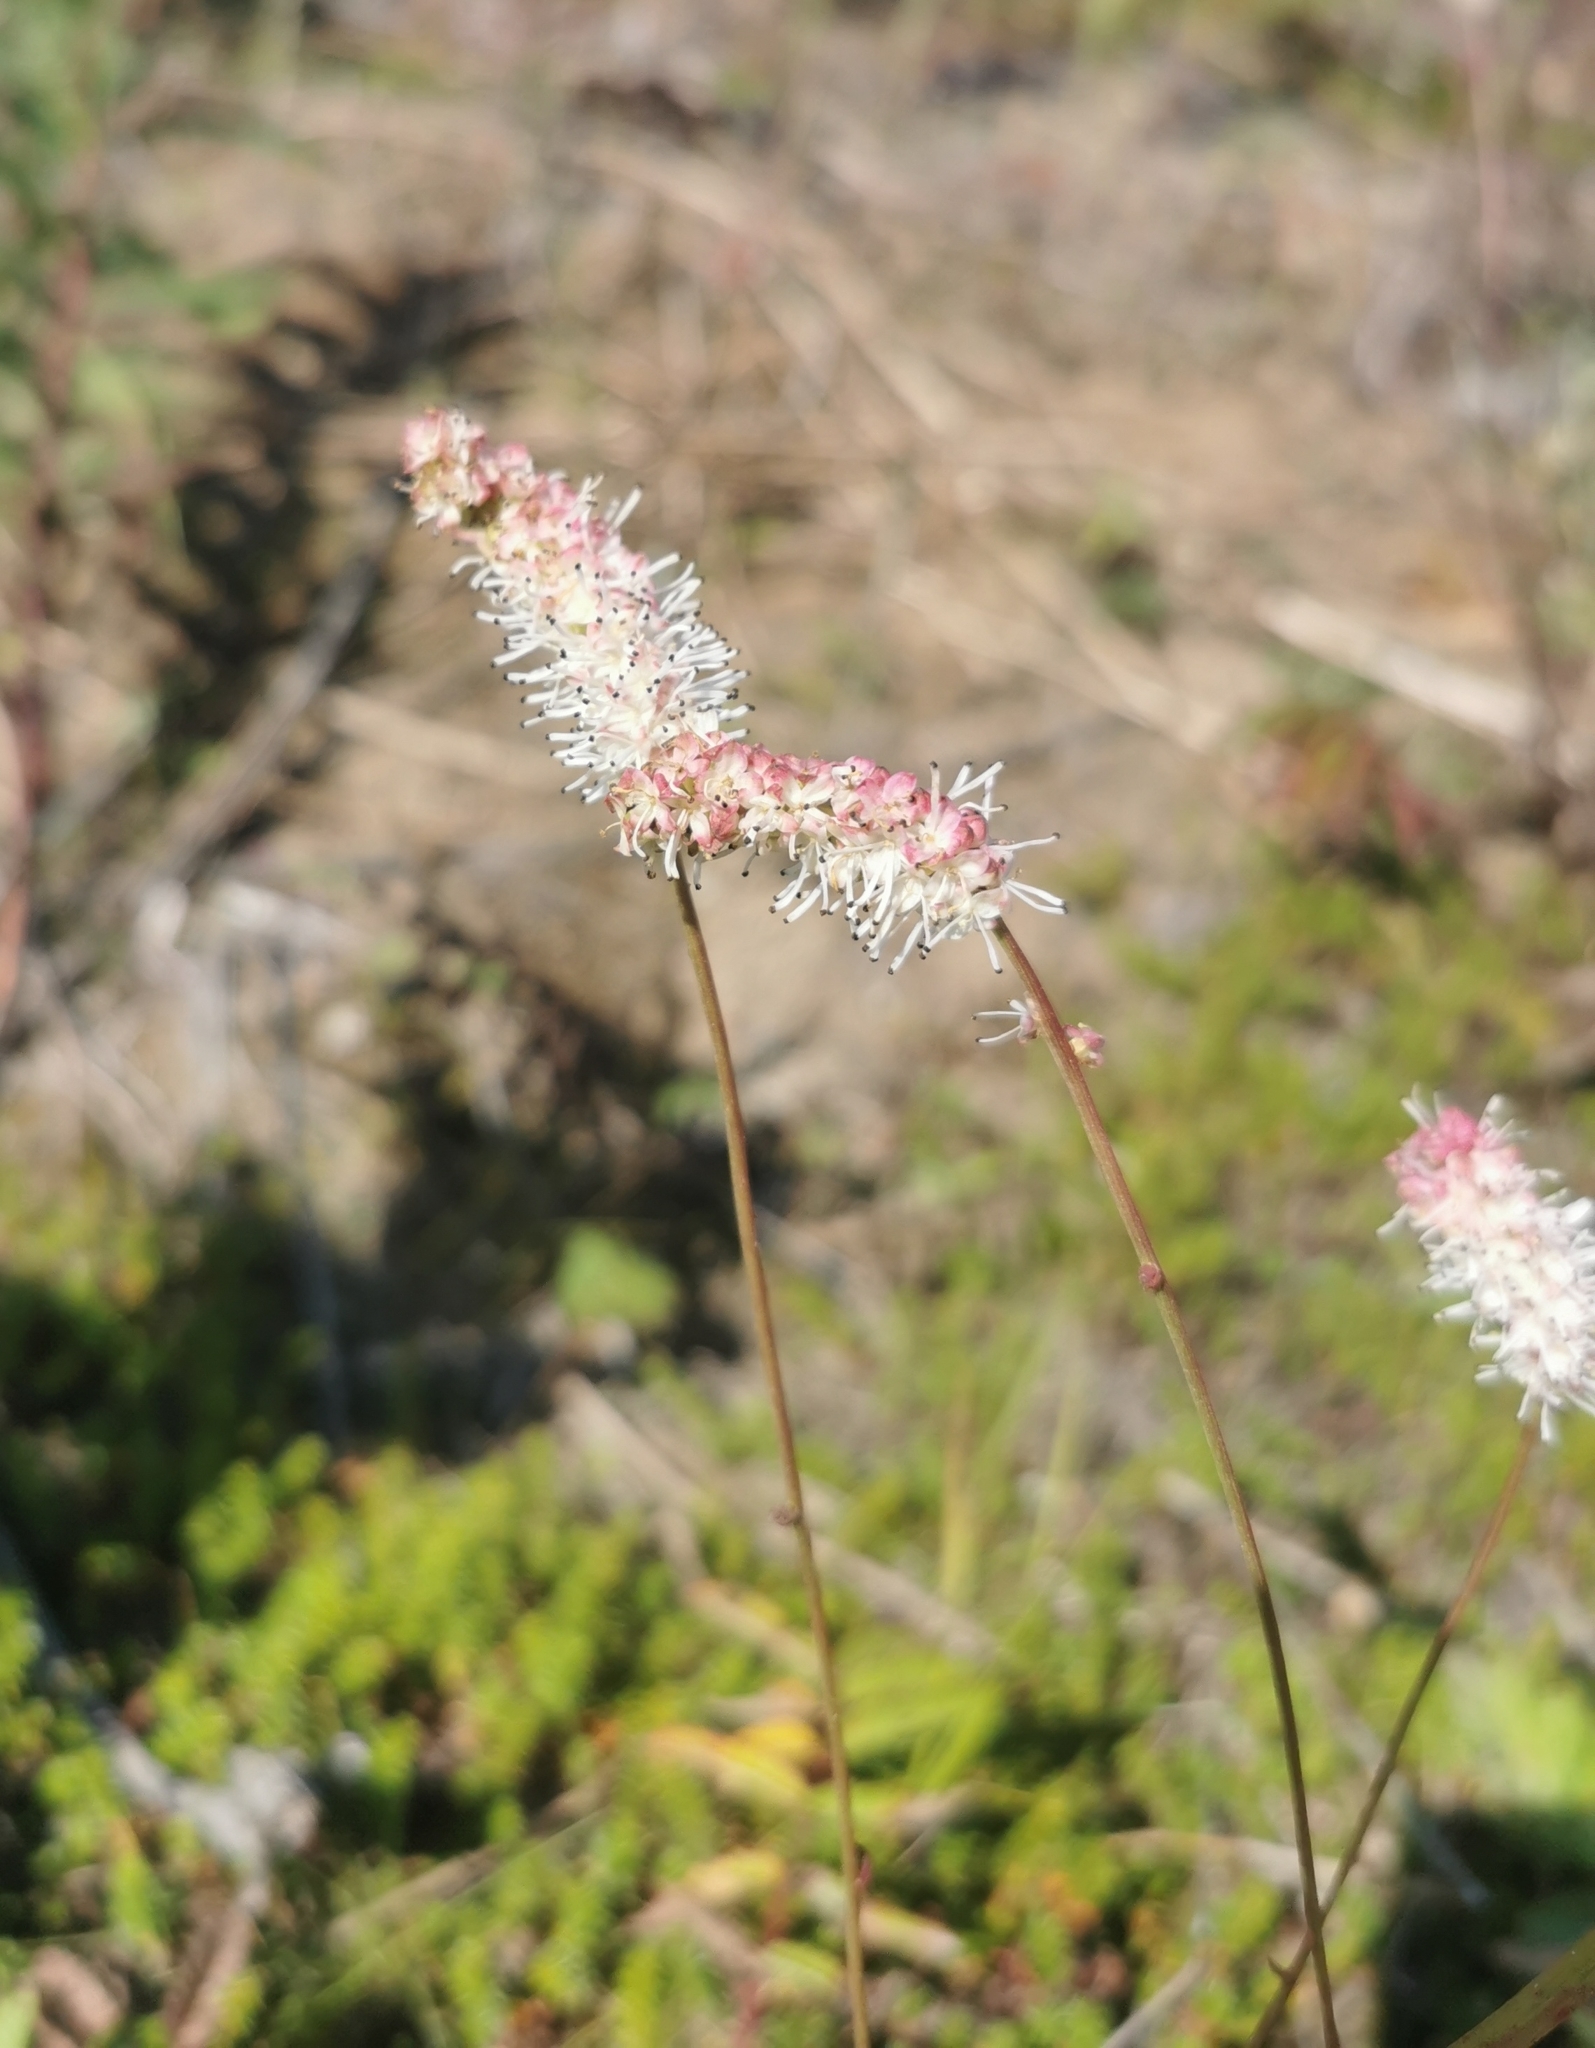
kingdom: Plantae
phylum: Tracheophyta
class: Magnoliopsida
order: Rosales
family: Rosaceae
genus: Poterium
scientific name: Poterium tenuifolium
